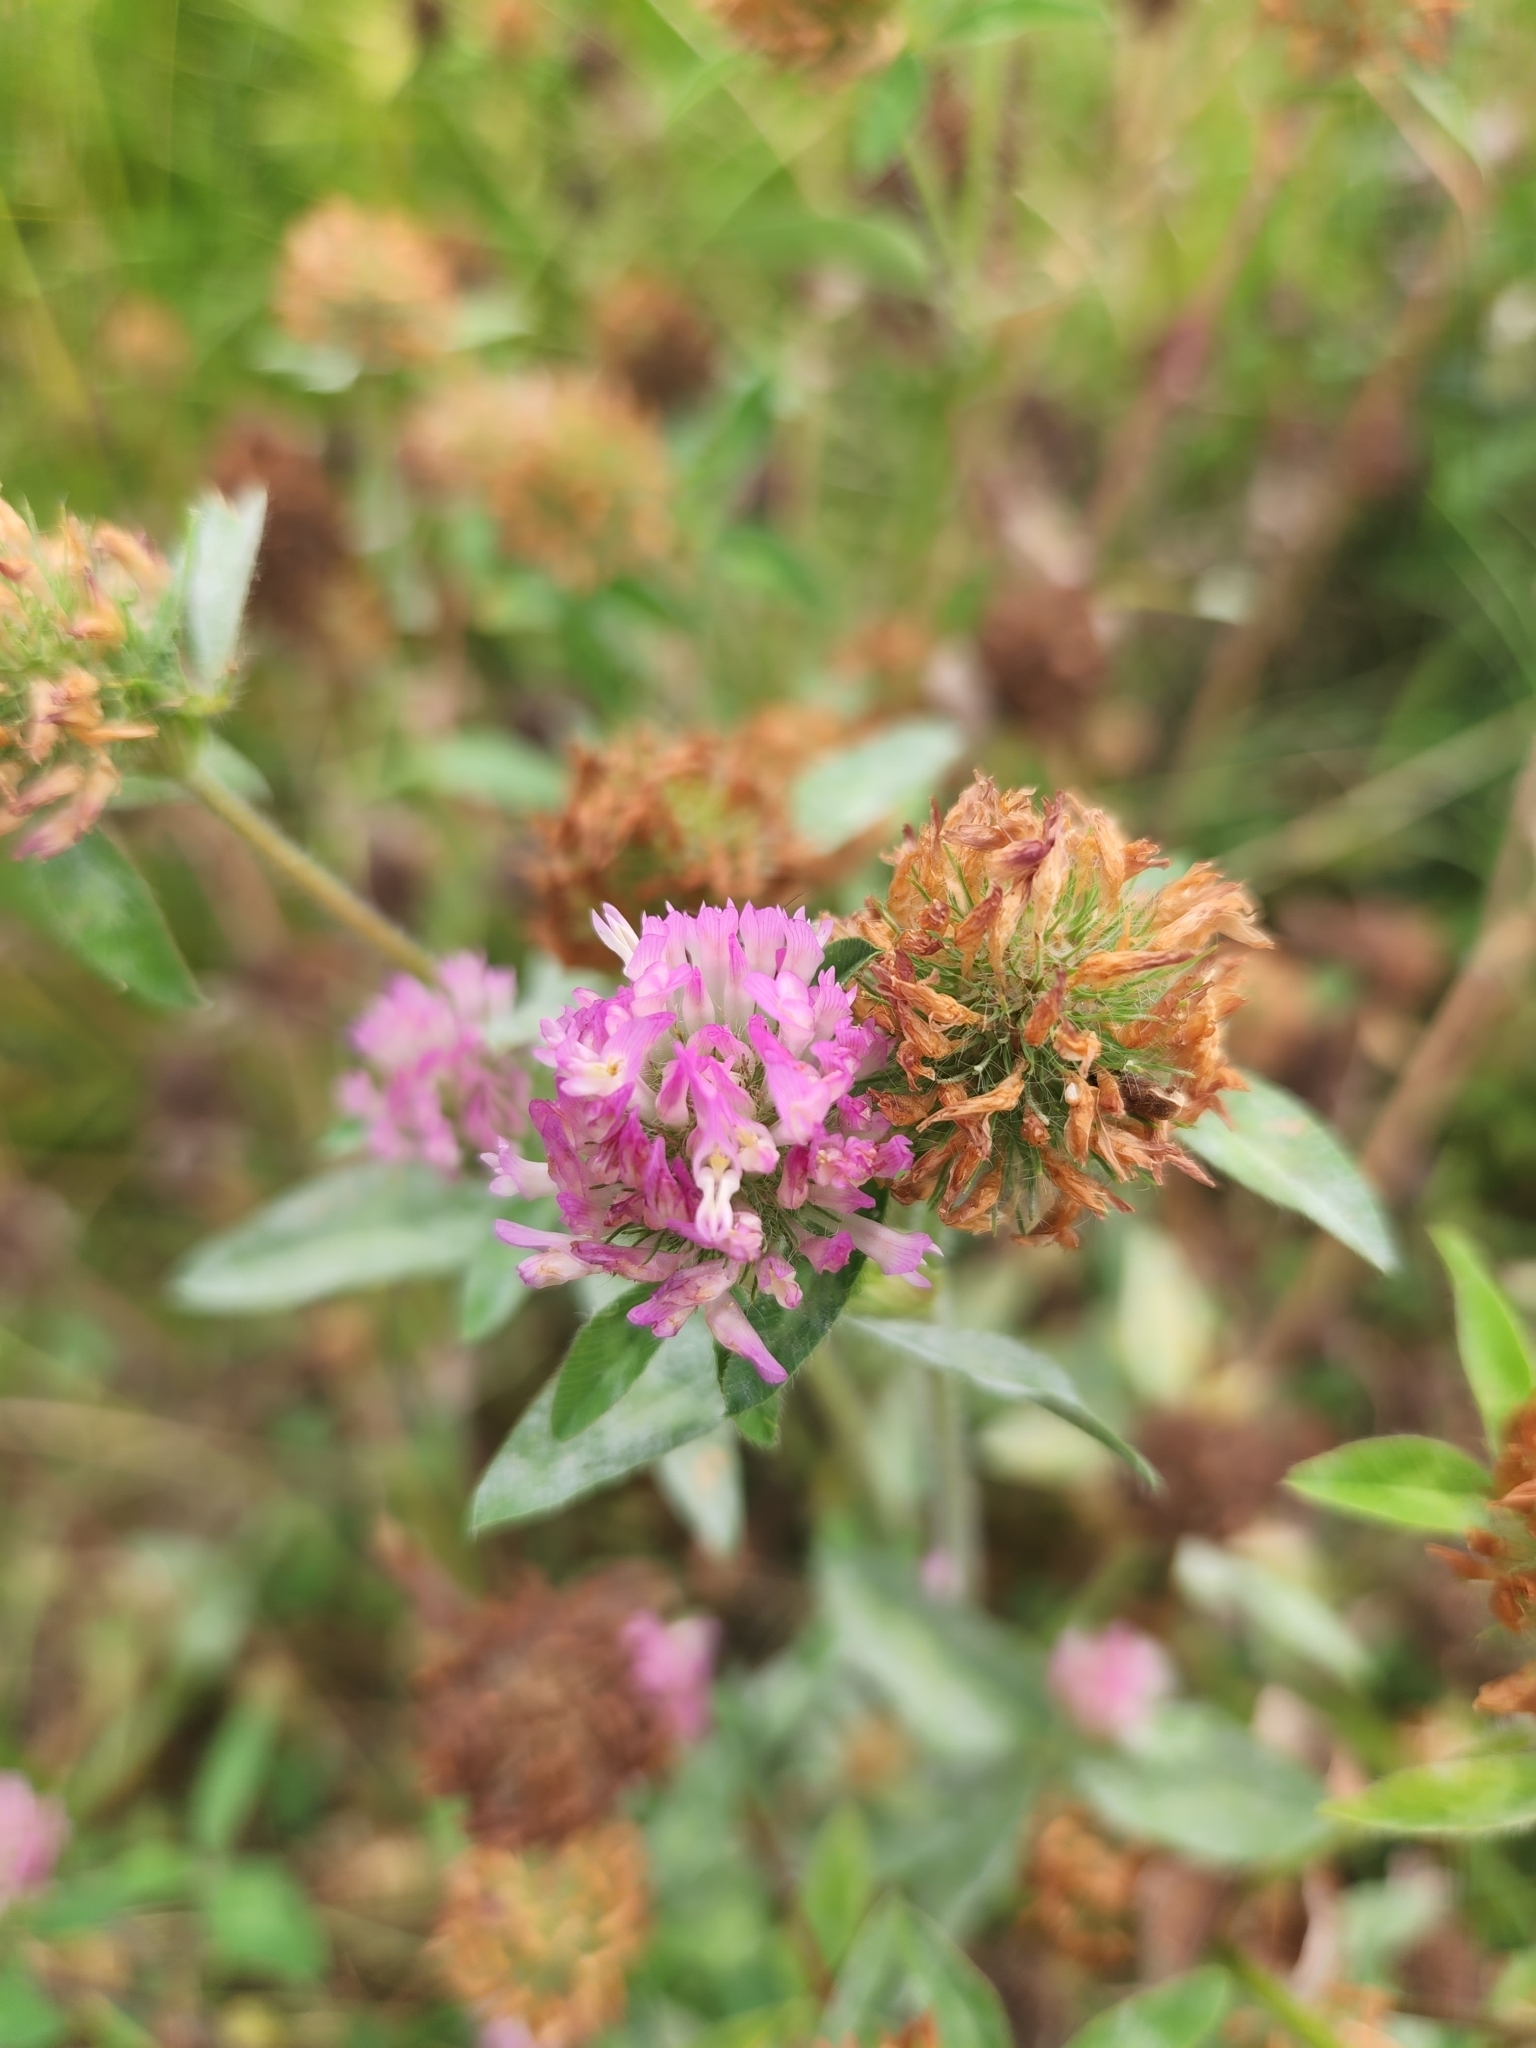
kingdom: Plantae
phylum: Tracheophyta
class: Magnoliopsida
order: Fabales
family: Fabaceae
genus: Trifolium
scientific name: Trifolium pratense
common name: Red clover
